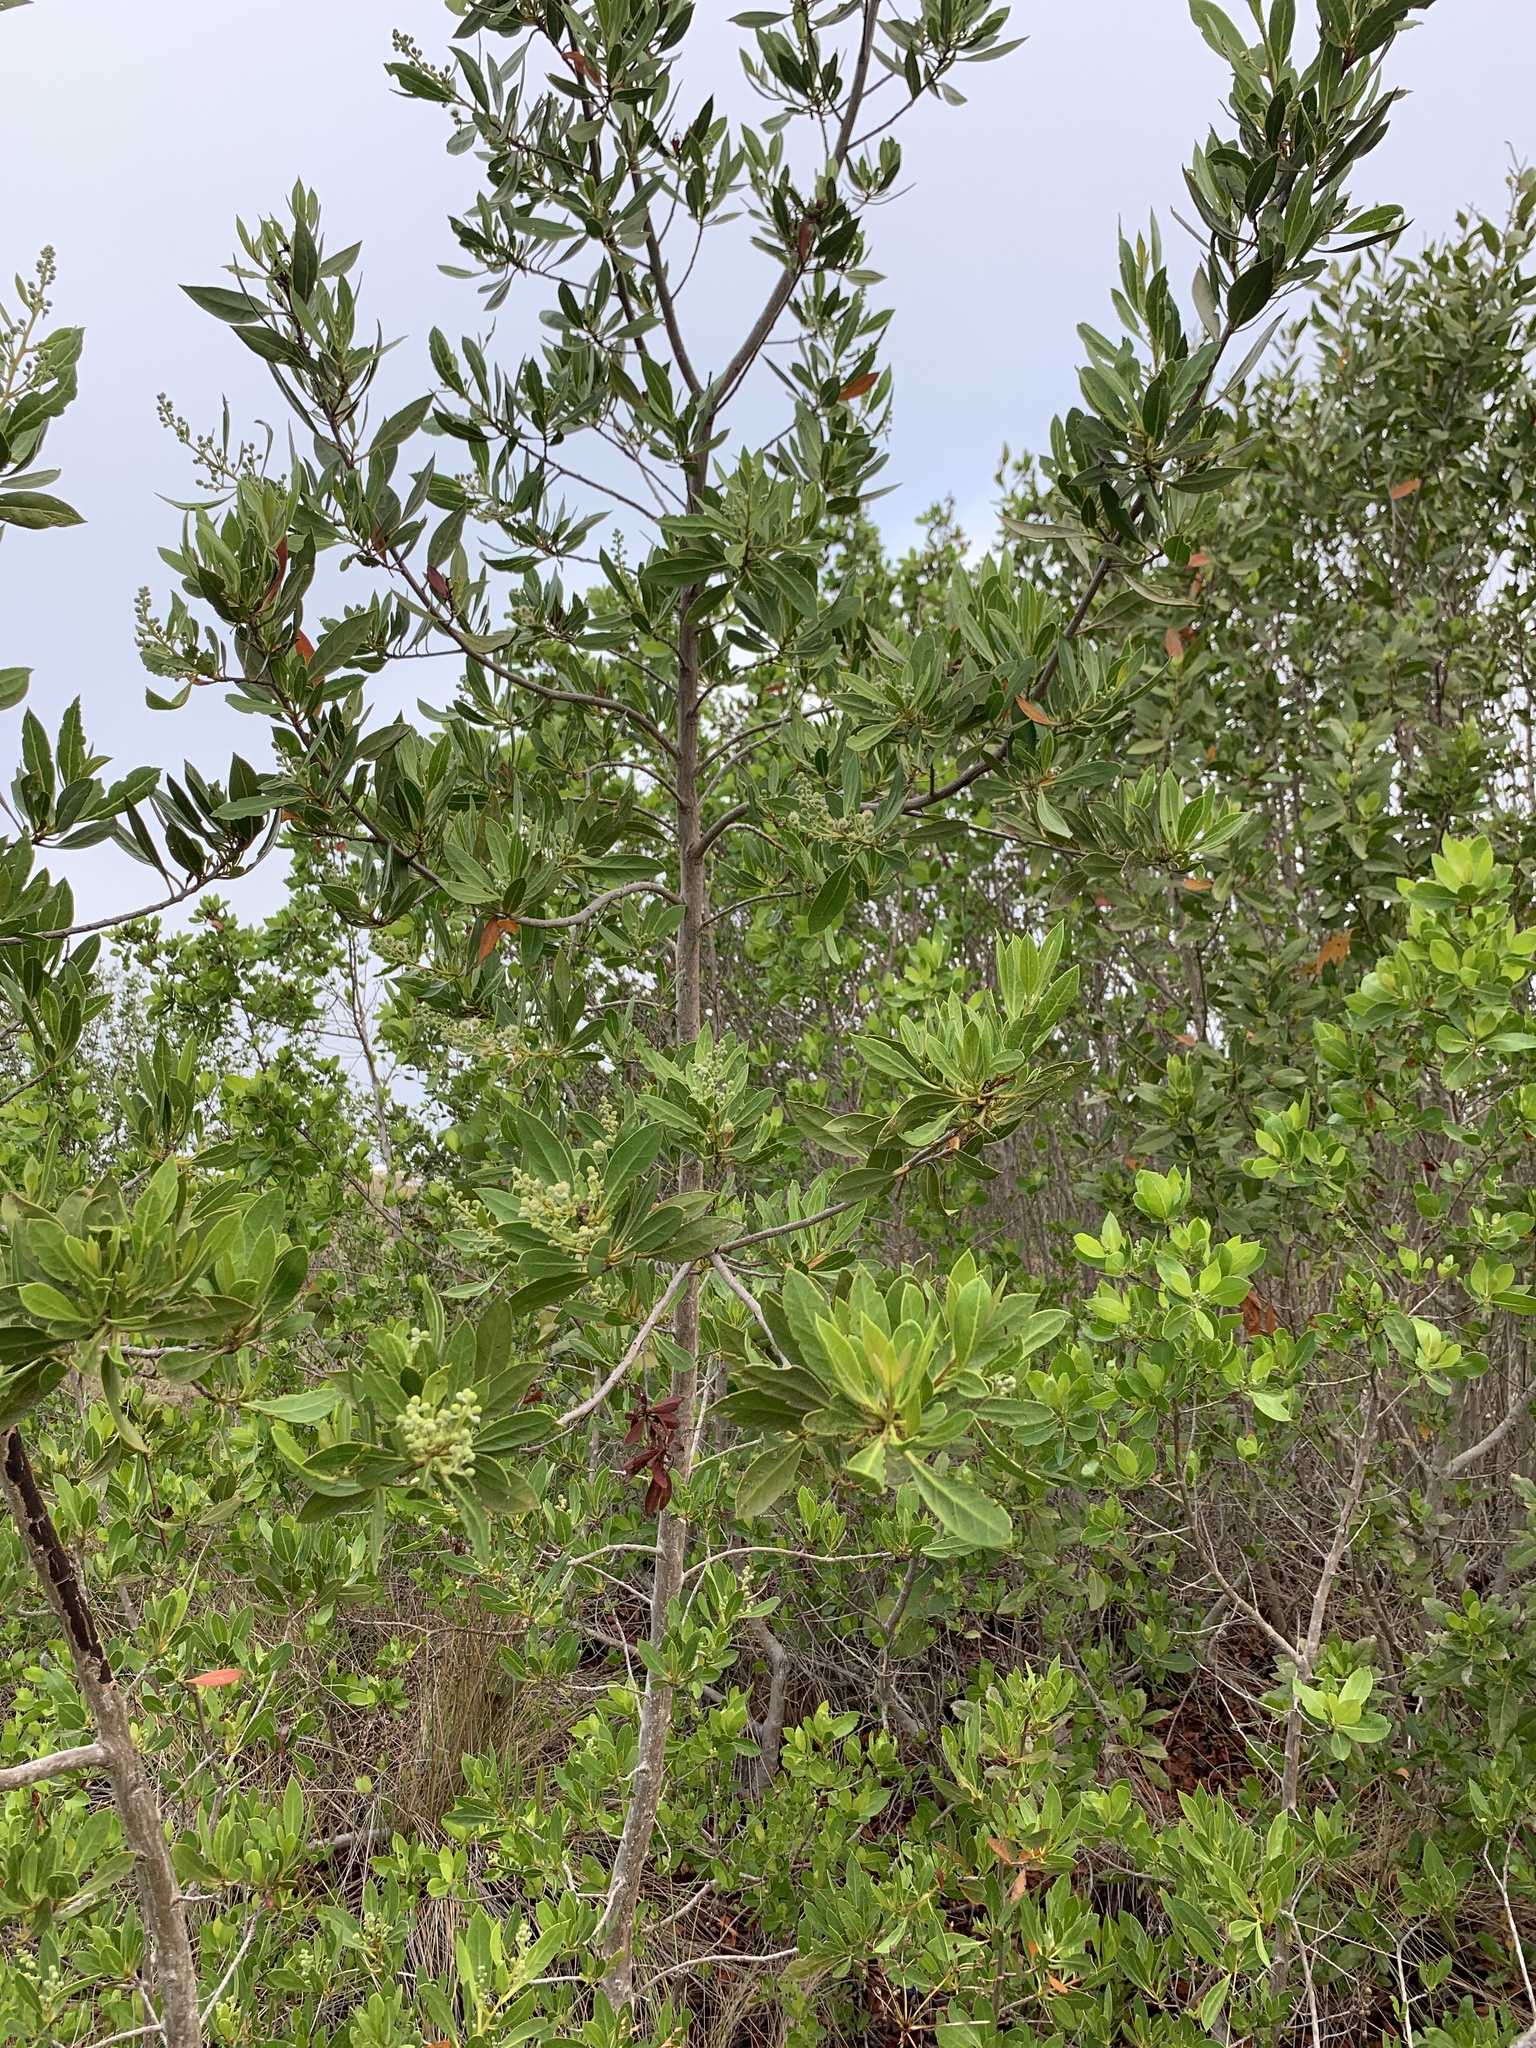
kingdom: Plantae
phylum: Tracheophyta
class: Magnoliopsida
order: Myrtales
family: Combretaceae
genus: Conocarpus
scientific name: Conocarpus erectus
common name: Button mangrove
